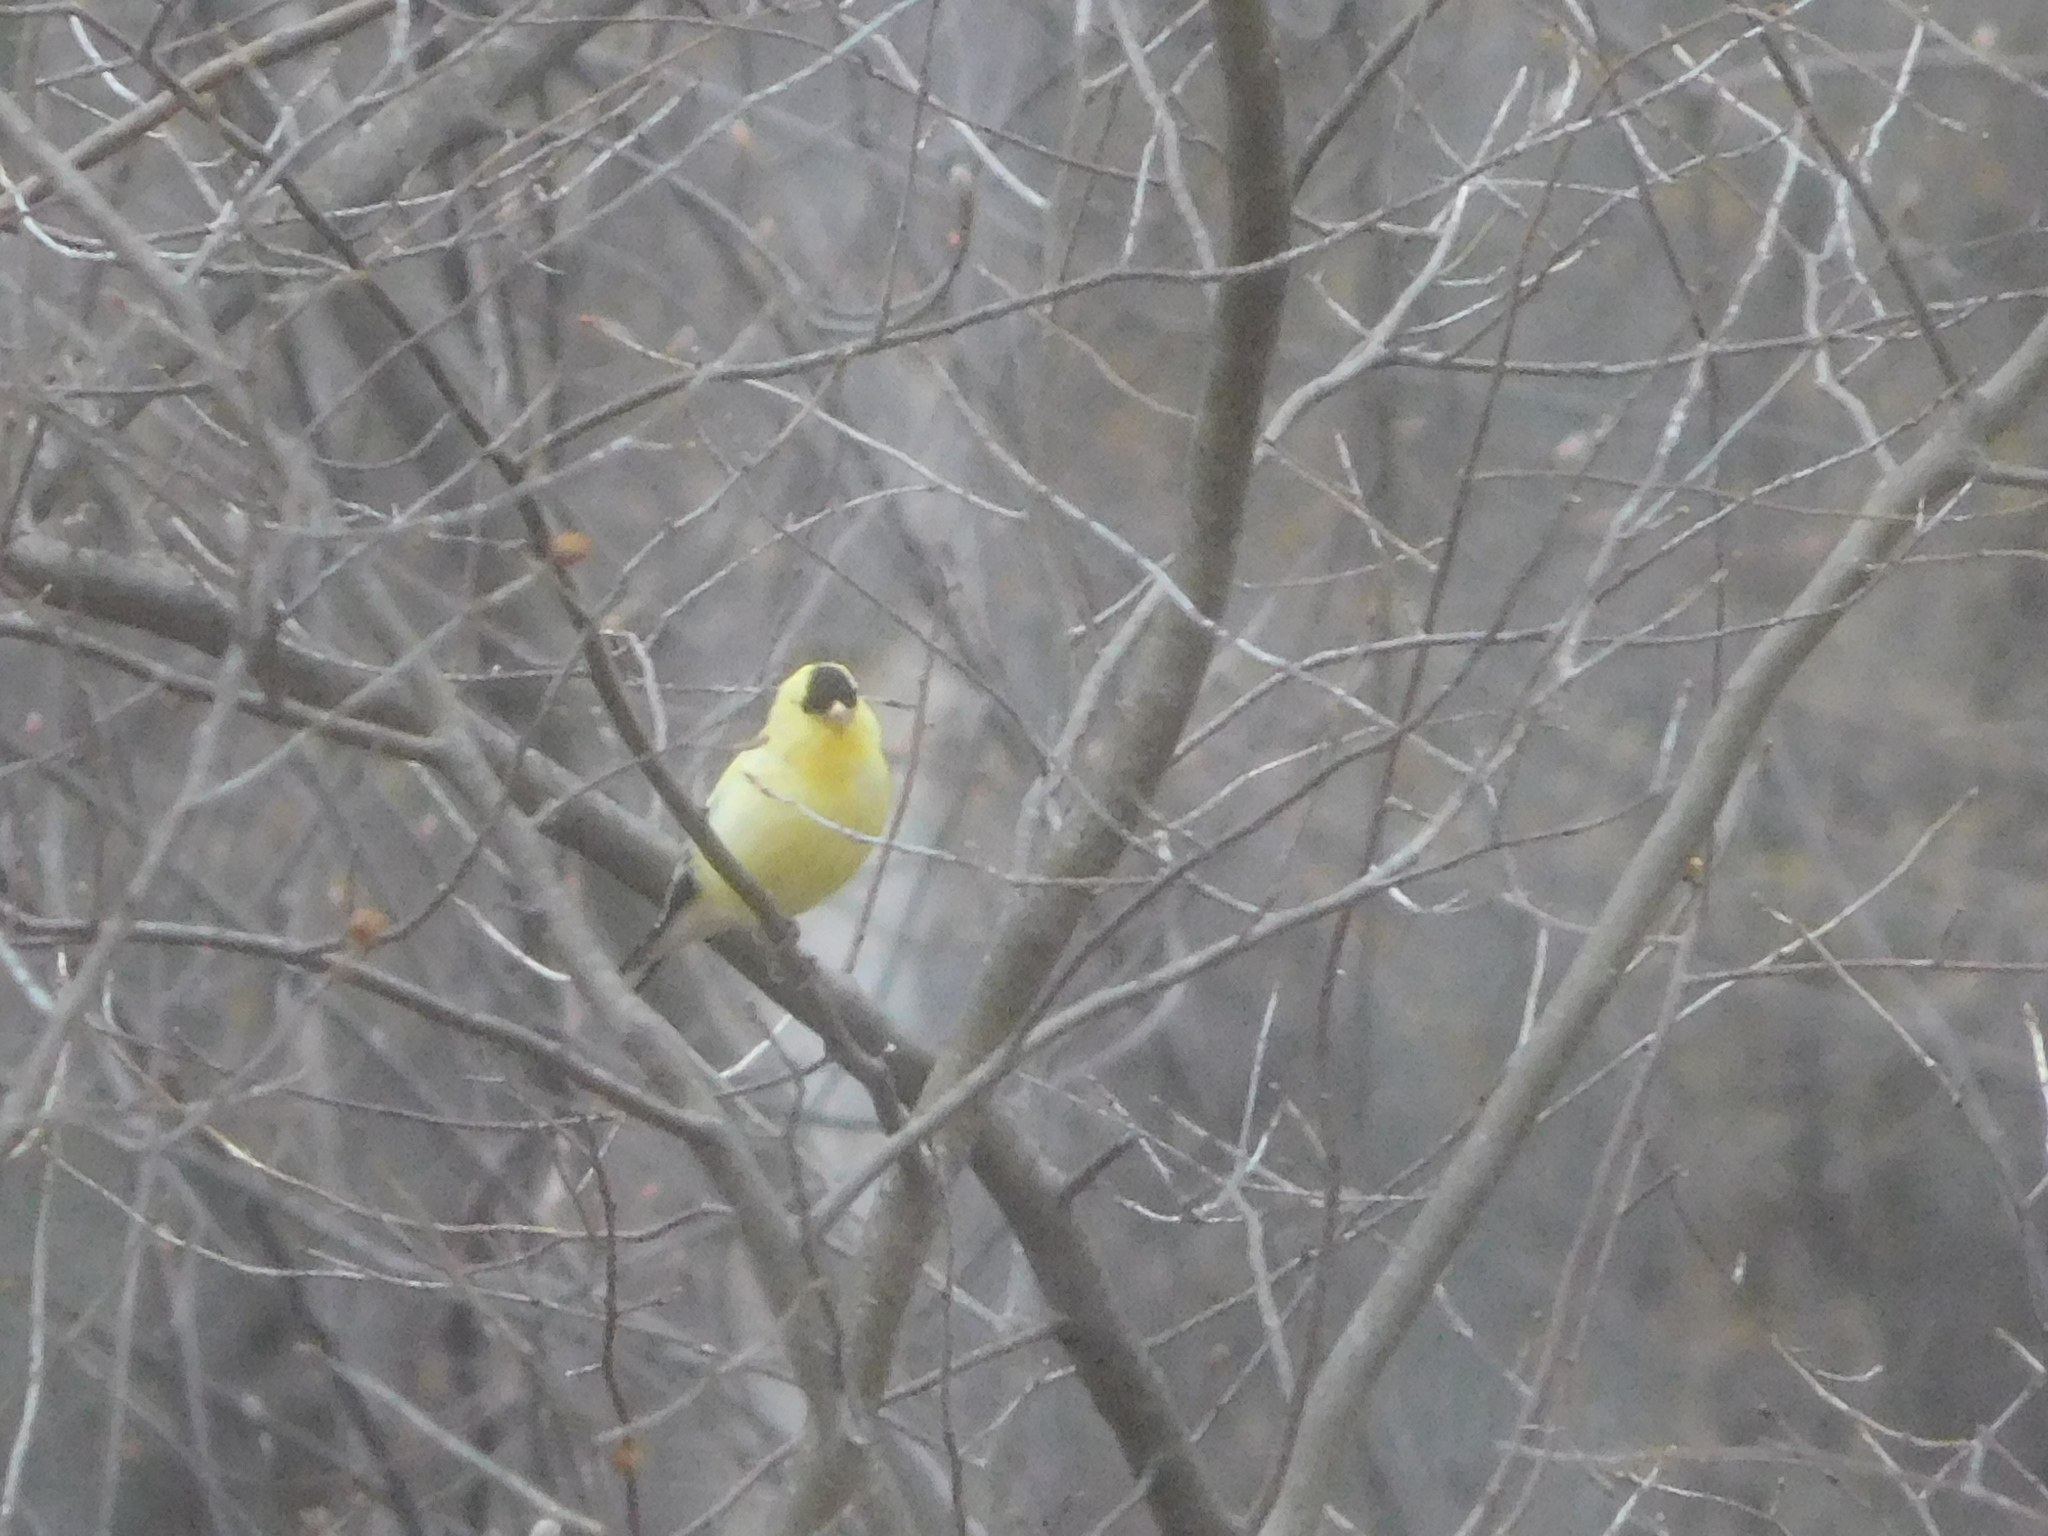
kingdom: Animalia
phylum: Chordata
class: Aves
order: Passeriformes
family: Fringillidae
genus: Spinus
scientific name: Spinus tristis
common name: American goldfinch
